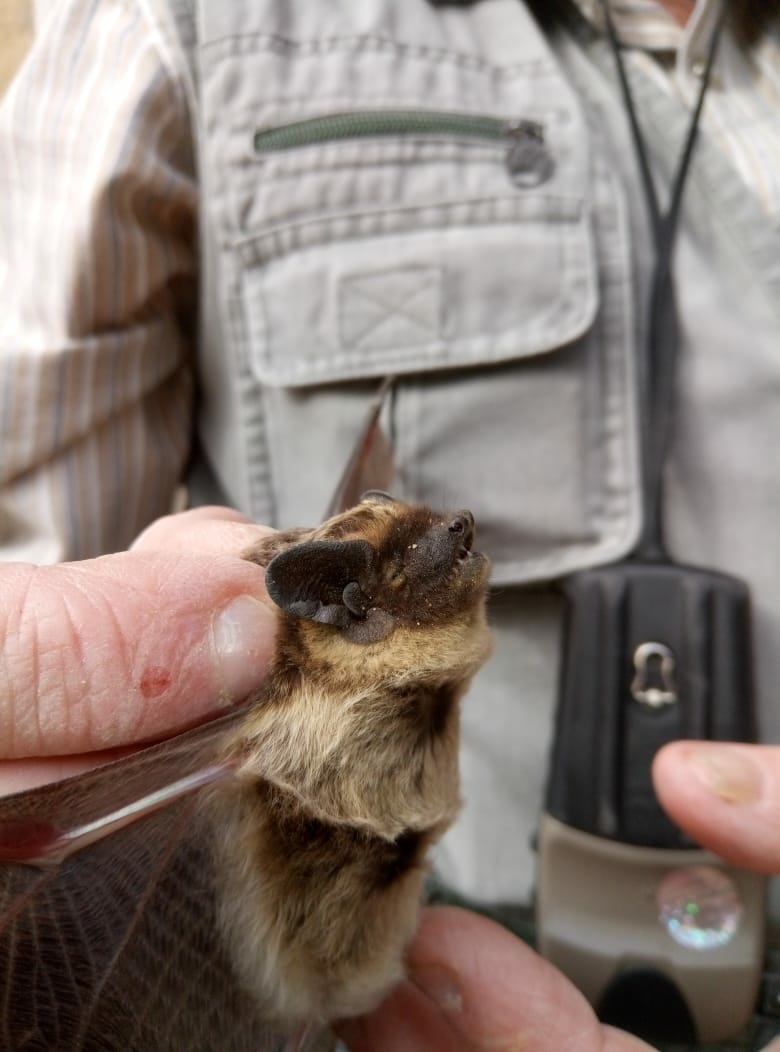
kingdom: Animalia
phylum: Chordata
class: Mammalia
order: Chiroptera
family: Vespertilionidae
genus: Vespertilio
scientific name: Vespertilio murinus
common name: Particolored bat
